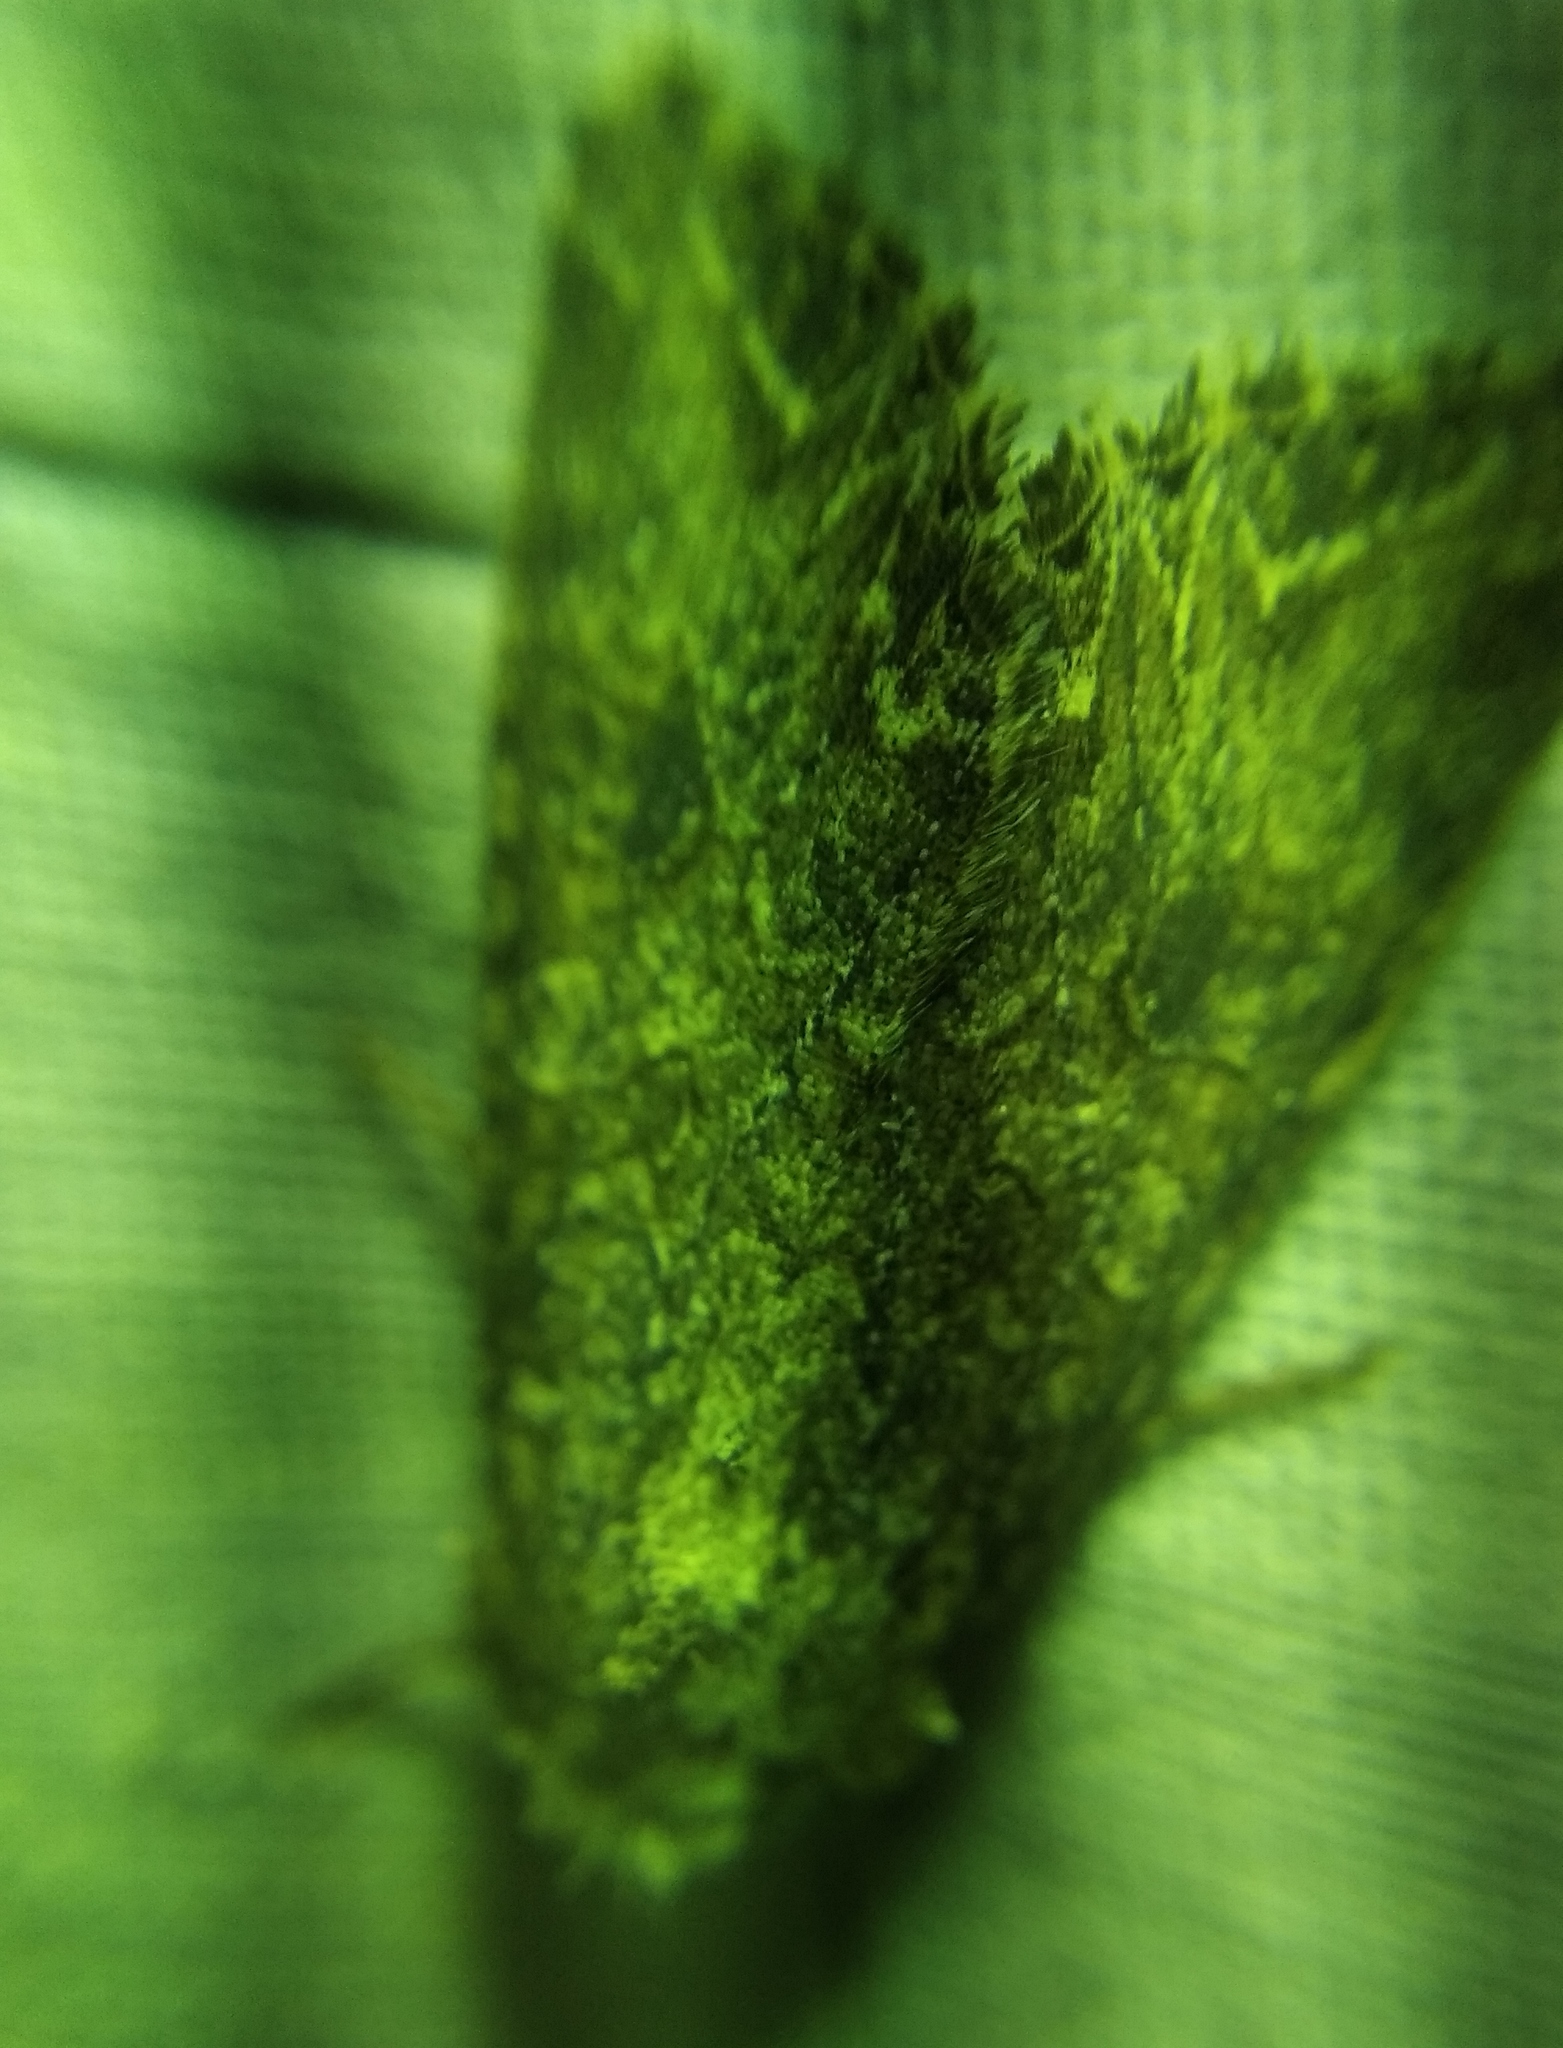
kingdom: Animalia
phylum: Arthropoda
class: Insecta
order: Lepidoptera
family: Noctuidae
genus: Anarta
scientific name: Anarta trifolii
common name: Clover cutworm moth
